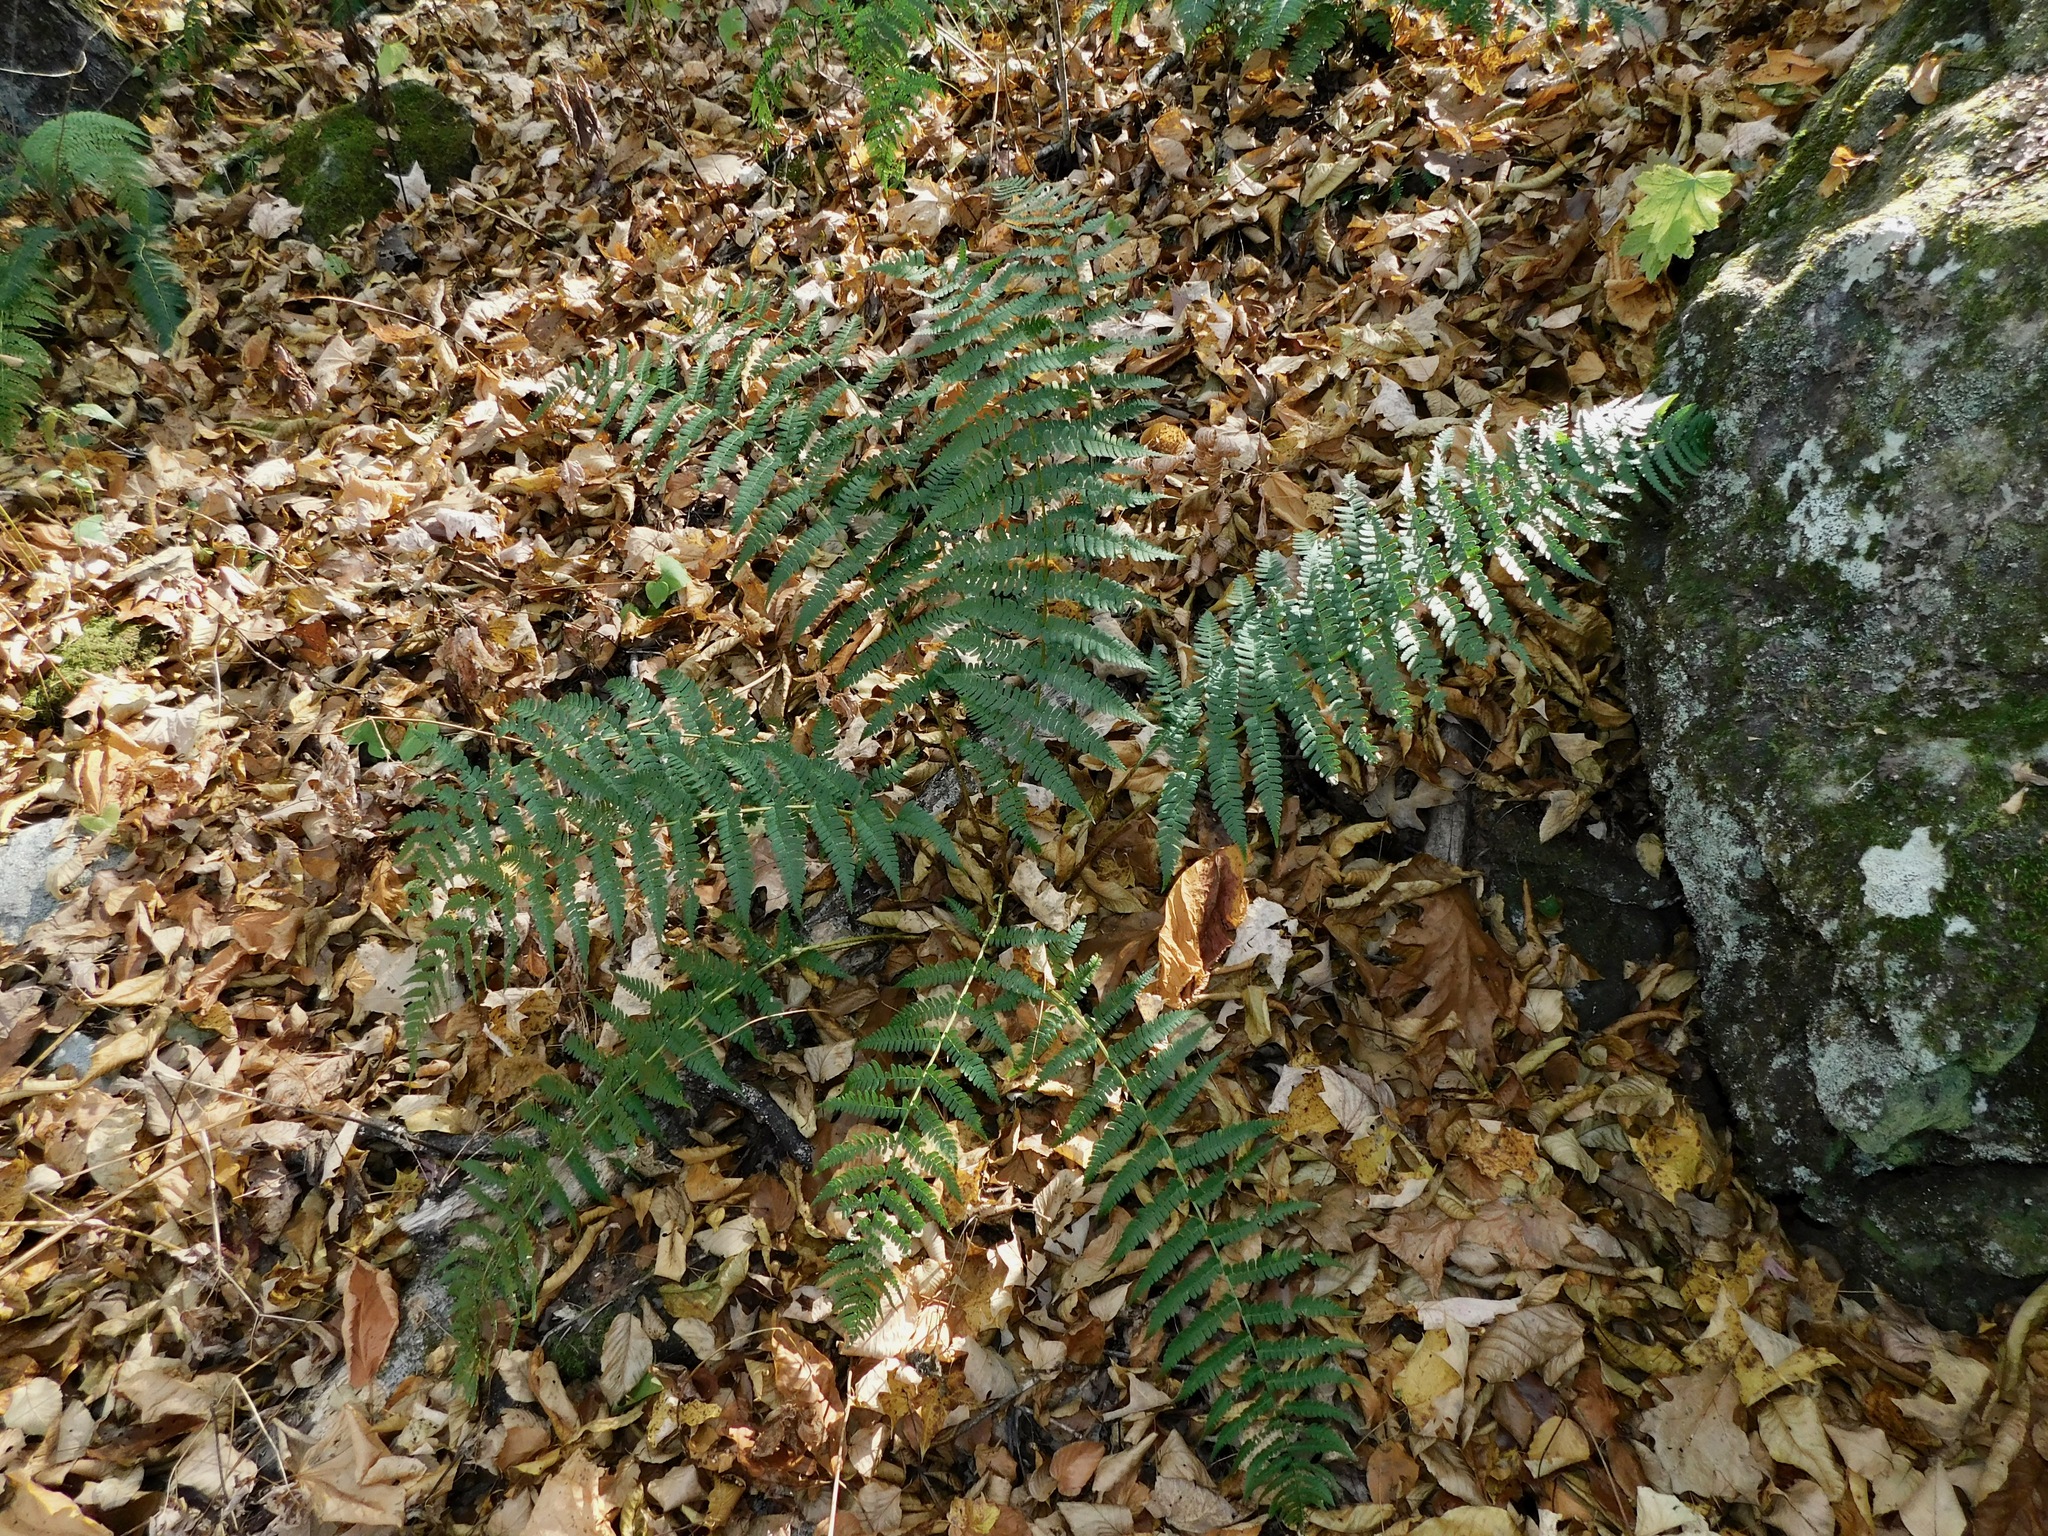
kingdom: Plantae
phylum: Tracheophyta
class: Polypodiopsida
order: Polypodiales
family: Dryopteridaceae
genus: Dryopteris
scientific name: Dryopteris marginalis
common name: Marginal wood fern
